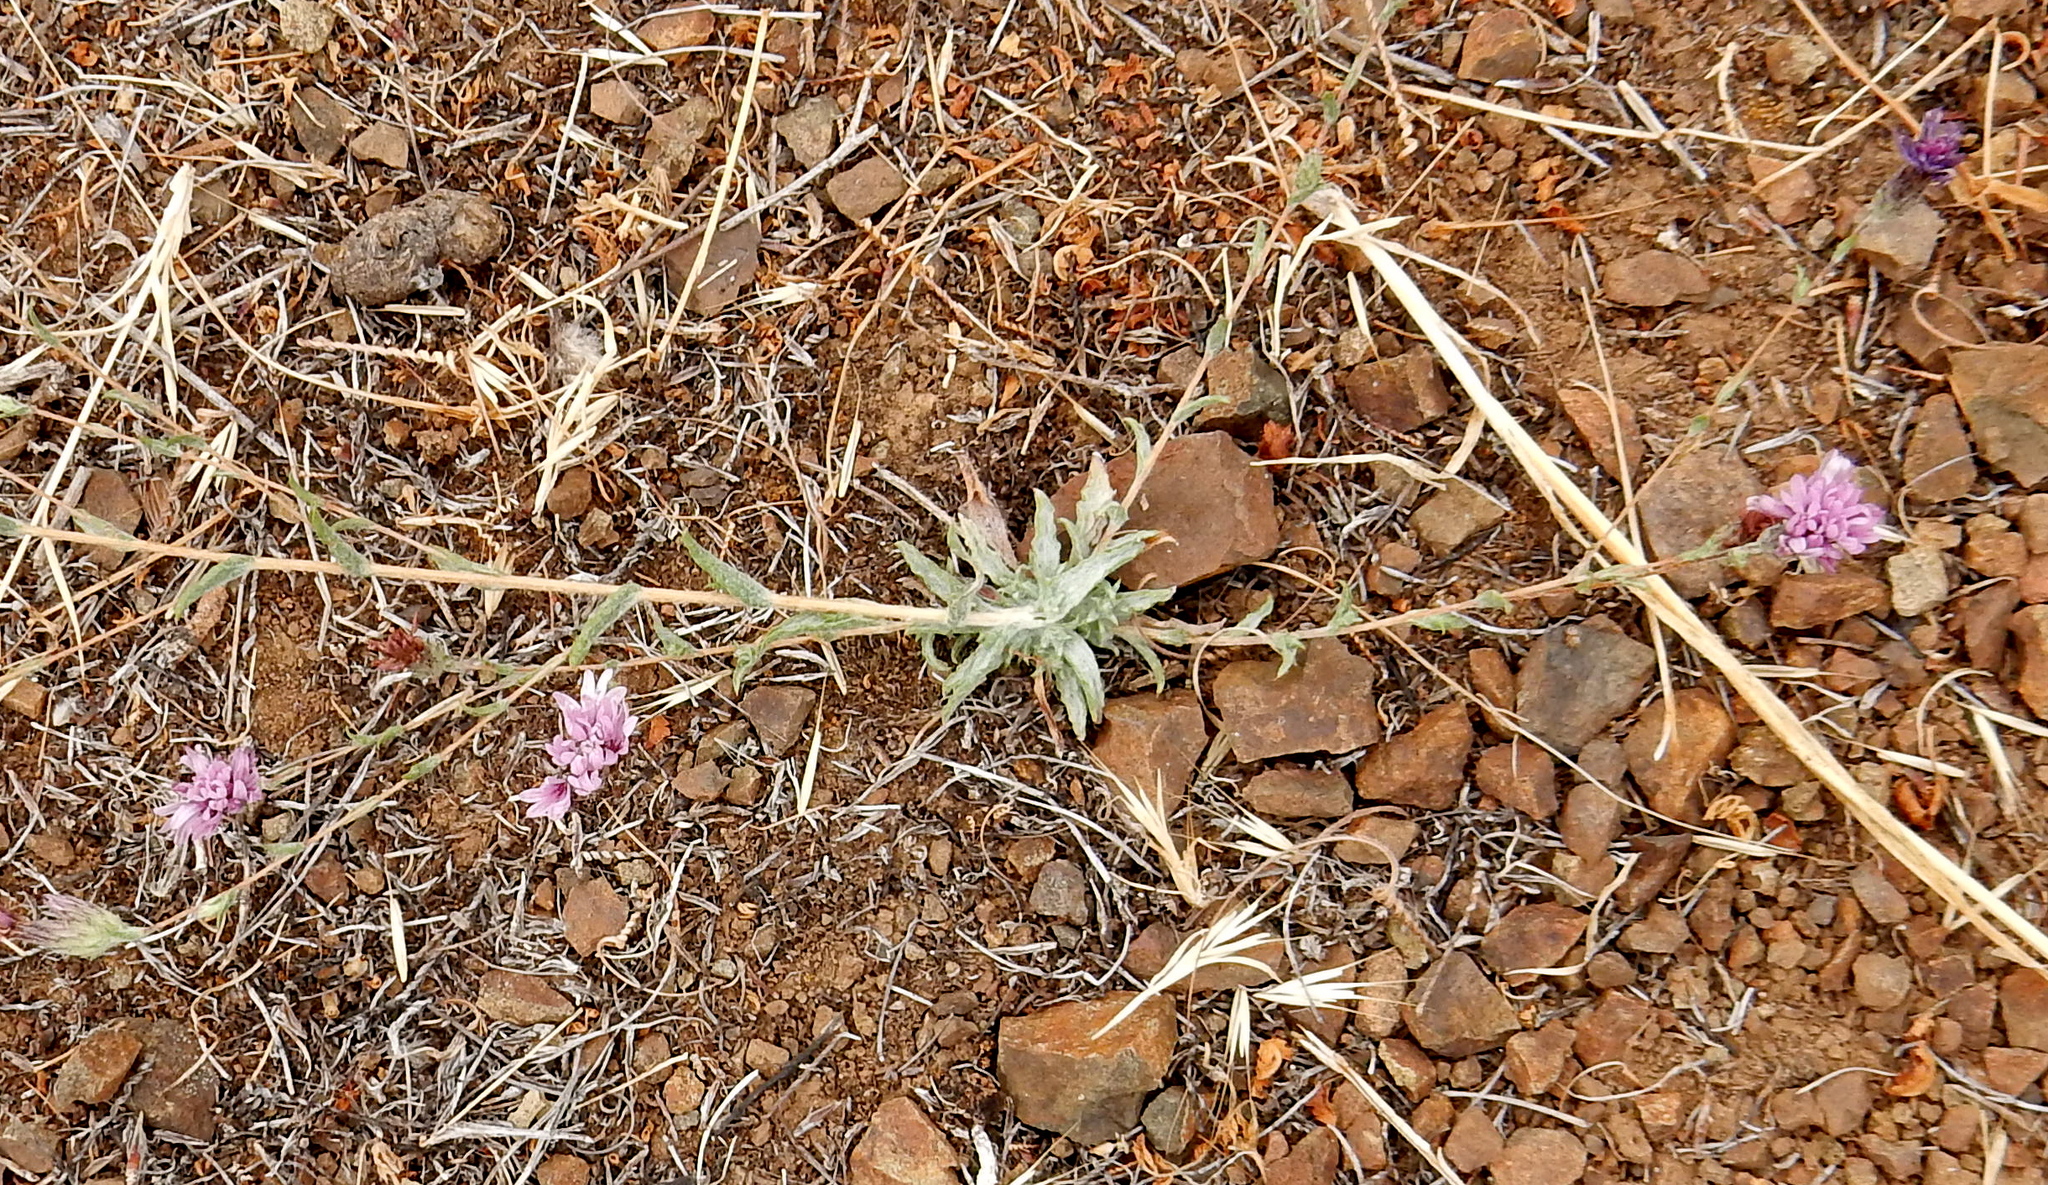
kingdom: Plantae
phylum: Tracheophyta
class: Magnoliopsida
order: Asterales
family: Asteraceae
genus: Lessingia
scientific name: Lessingia hololeuca
